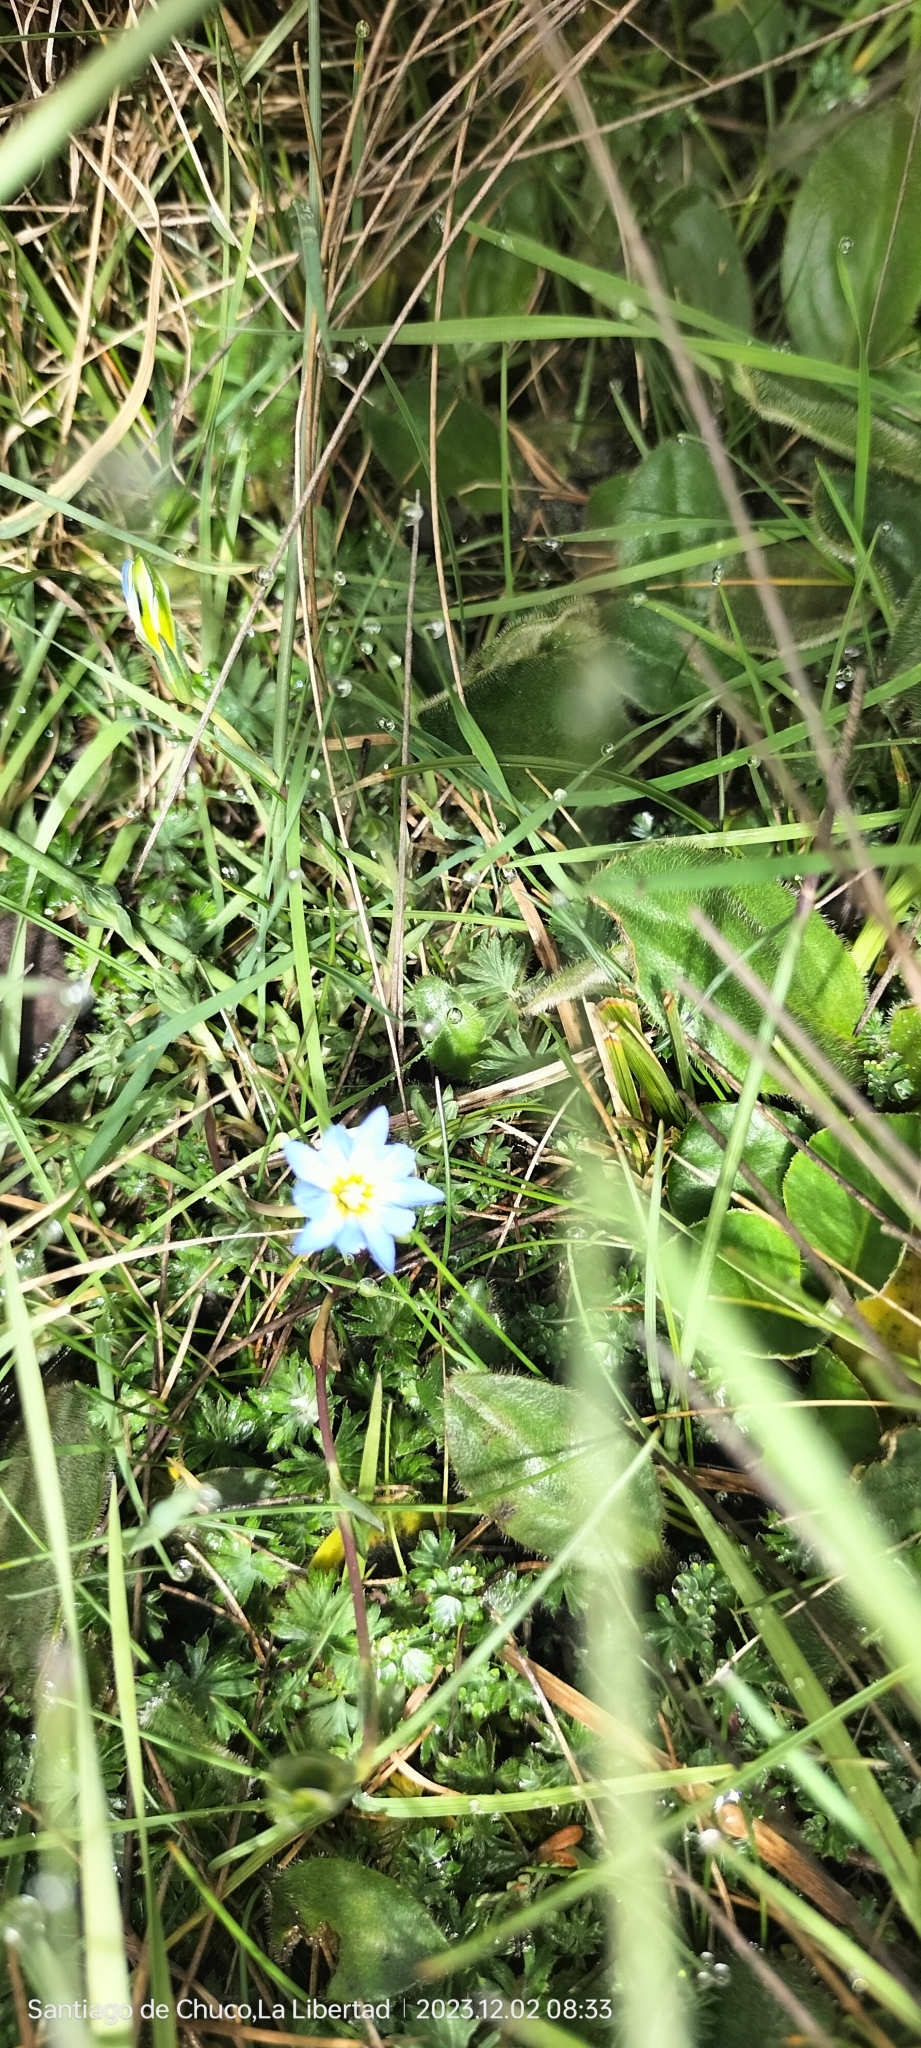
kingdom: Plantae
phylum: Tracheophyta
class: Magnoliopsida
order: Gentianales
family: Gentianaceae
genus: Gentiana
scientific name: Gentiana sedifolia
